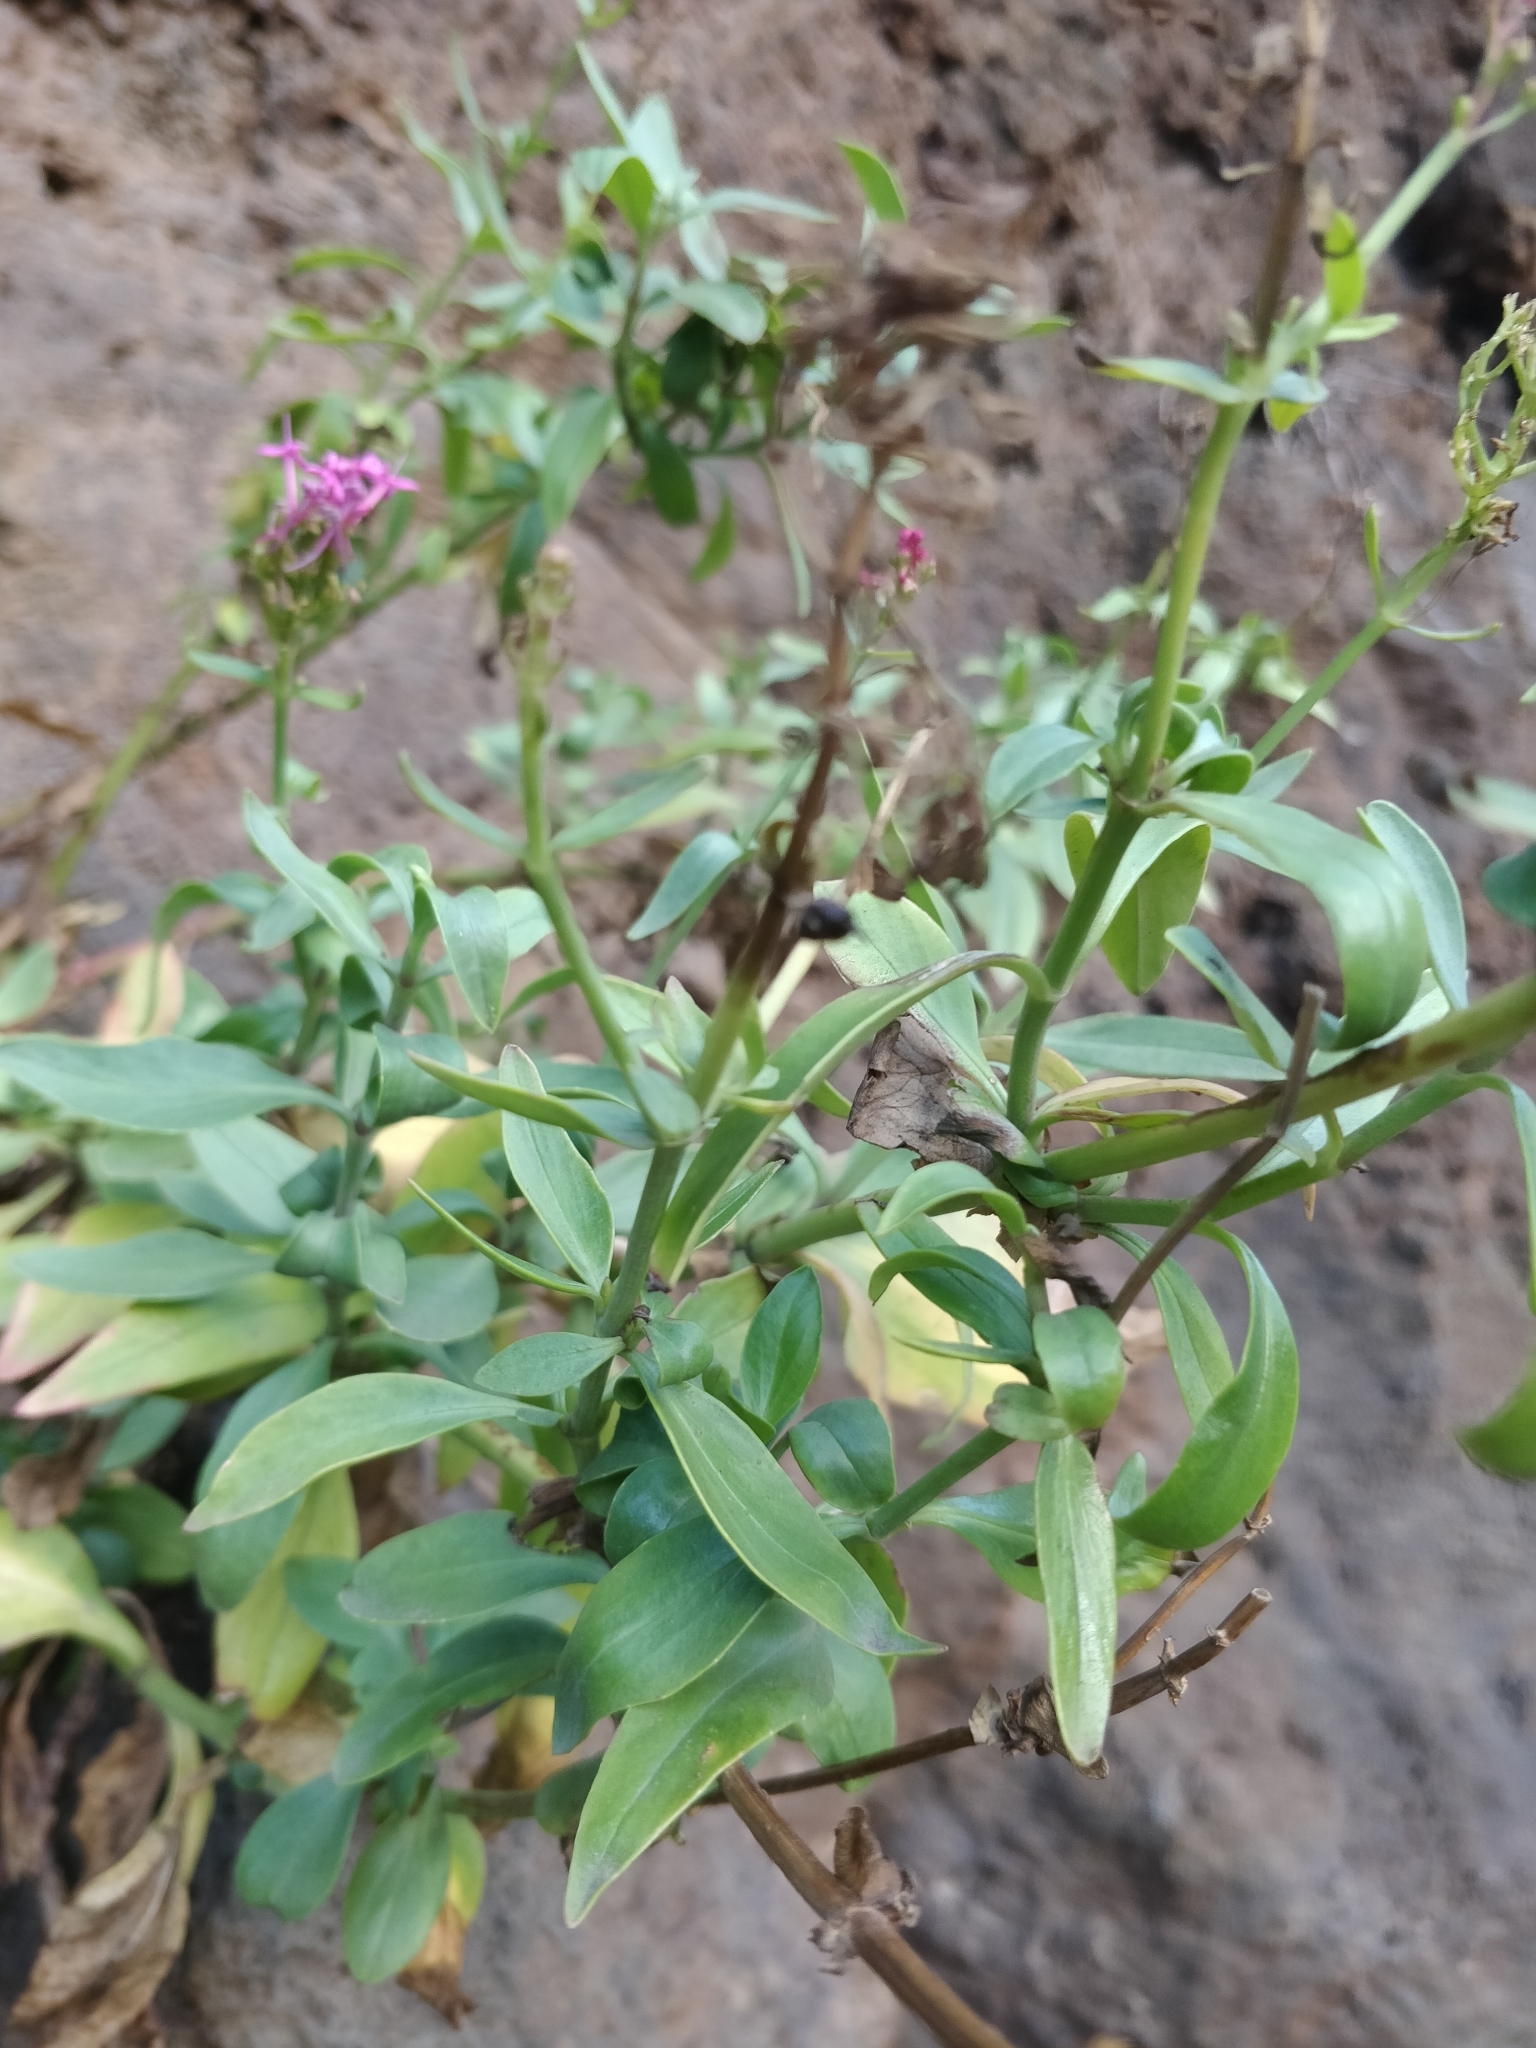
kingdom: Plantae
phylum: Tracheophyta
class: Magnoliopsida
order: Dipsacales
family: Caprifoliaceae
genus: Centranthus
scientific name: Centranthus ruber
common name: Red valerian
